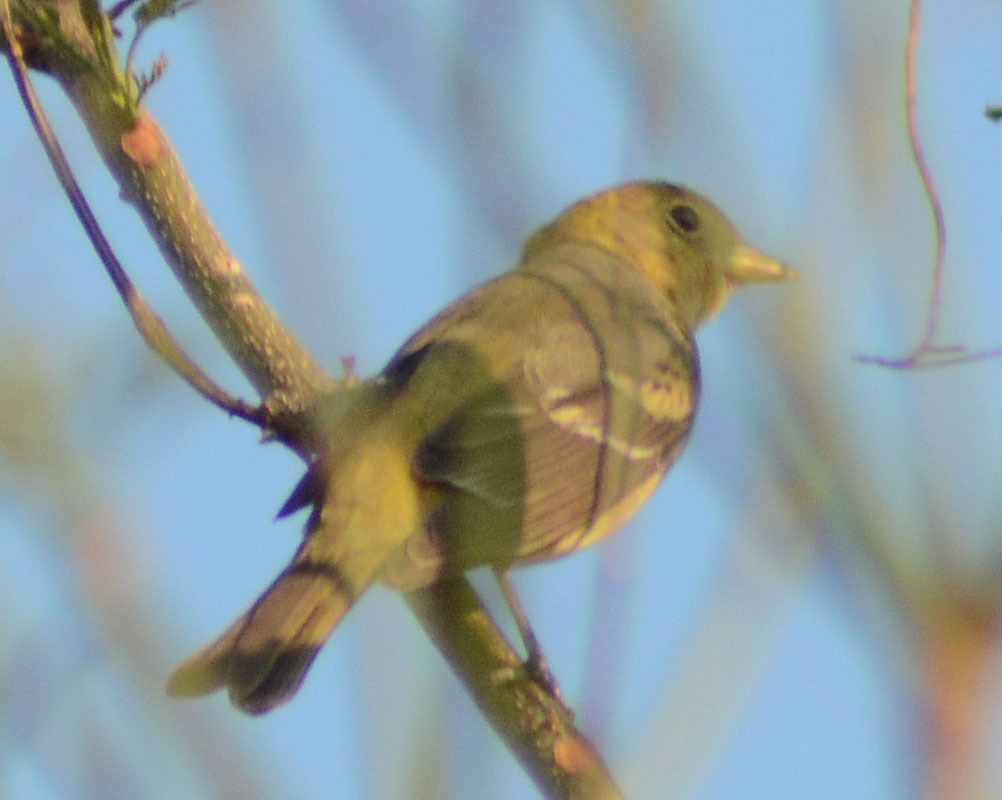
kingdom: Animalia
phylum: Chordata
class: Aves
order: Passeriformes
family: Cardinalidae
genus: Piranga
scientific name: Piranga ludoviciana
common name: Western tanager
